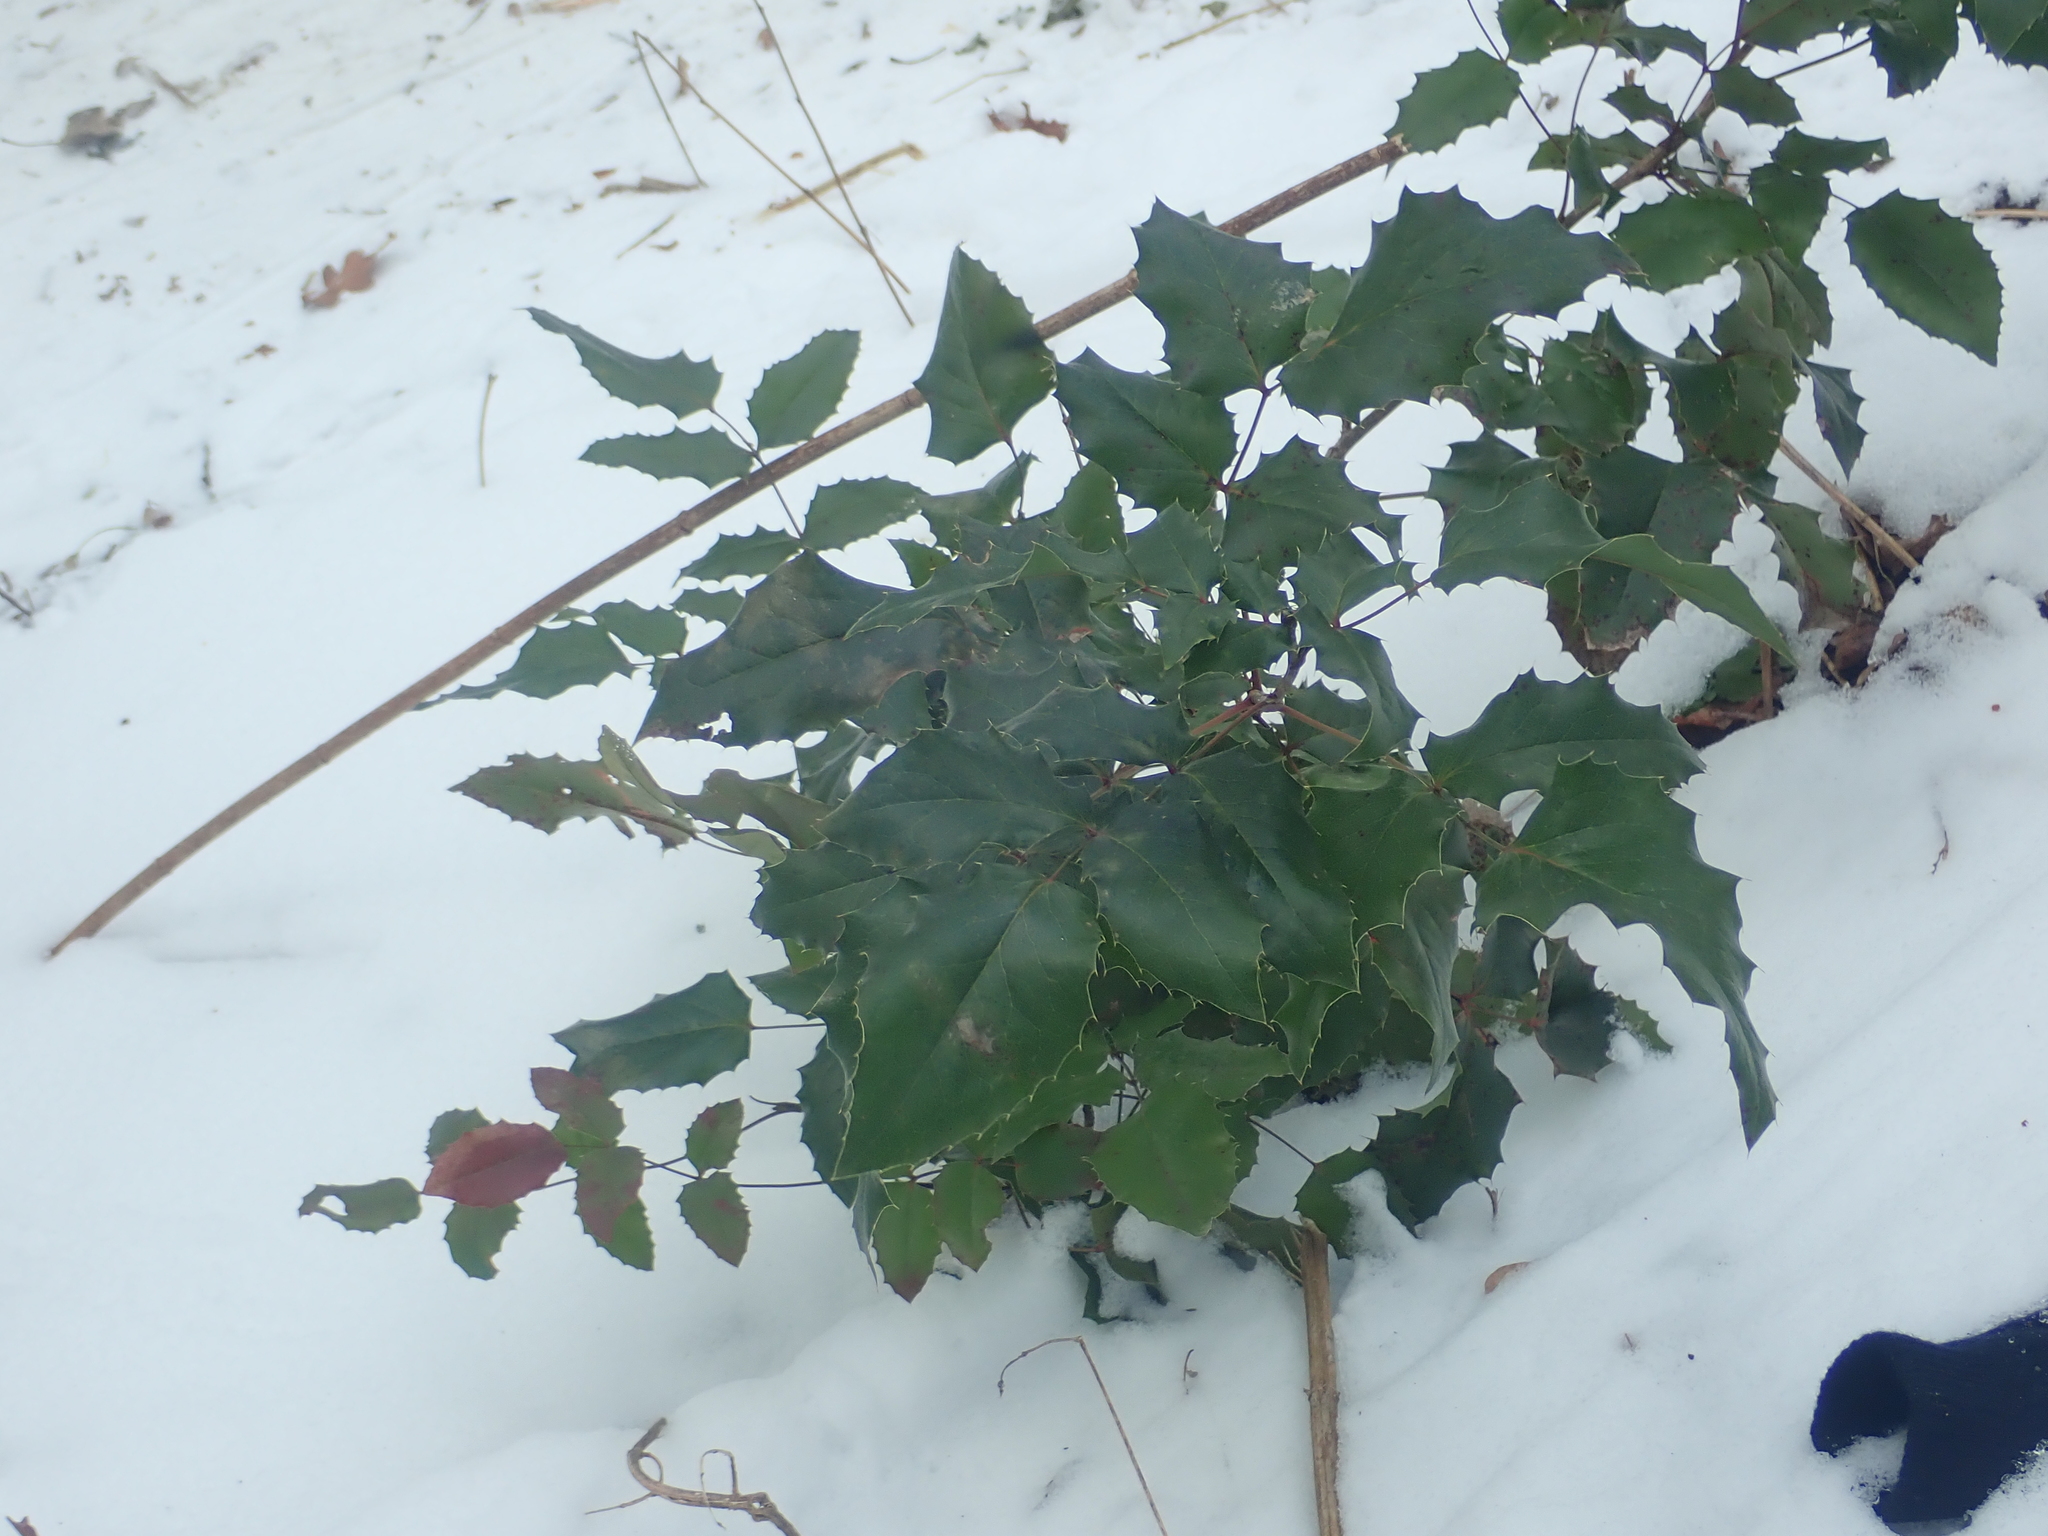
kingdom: Plantae
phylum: Tracheophyta
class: Magnoliopsida
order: Ranunculales
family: Berberidaceae
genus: Mahonia
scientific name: Mahonia aquifolium
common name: Oregon-grape
